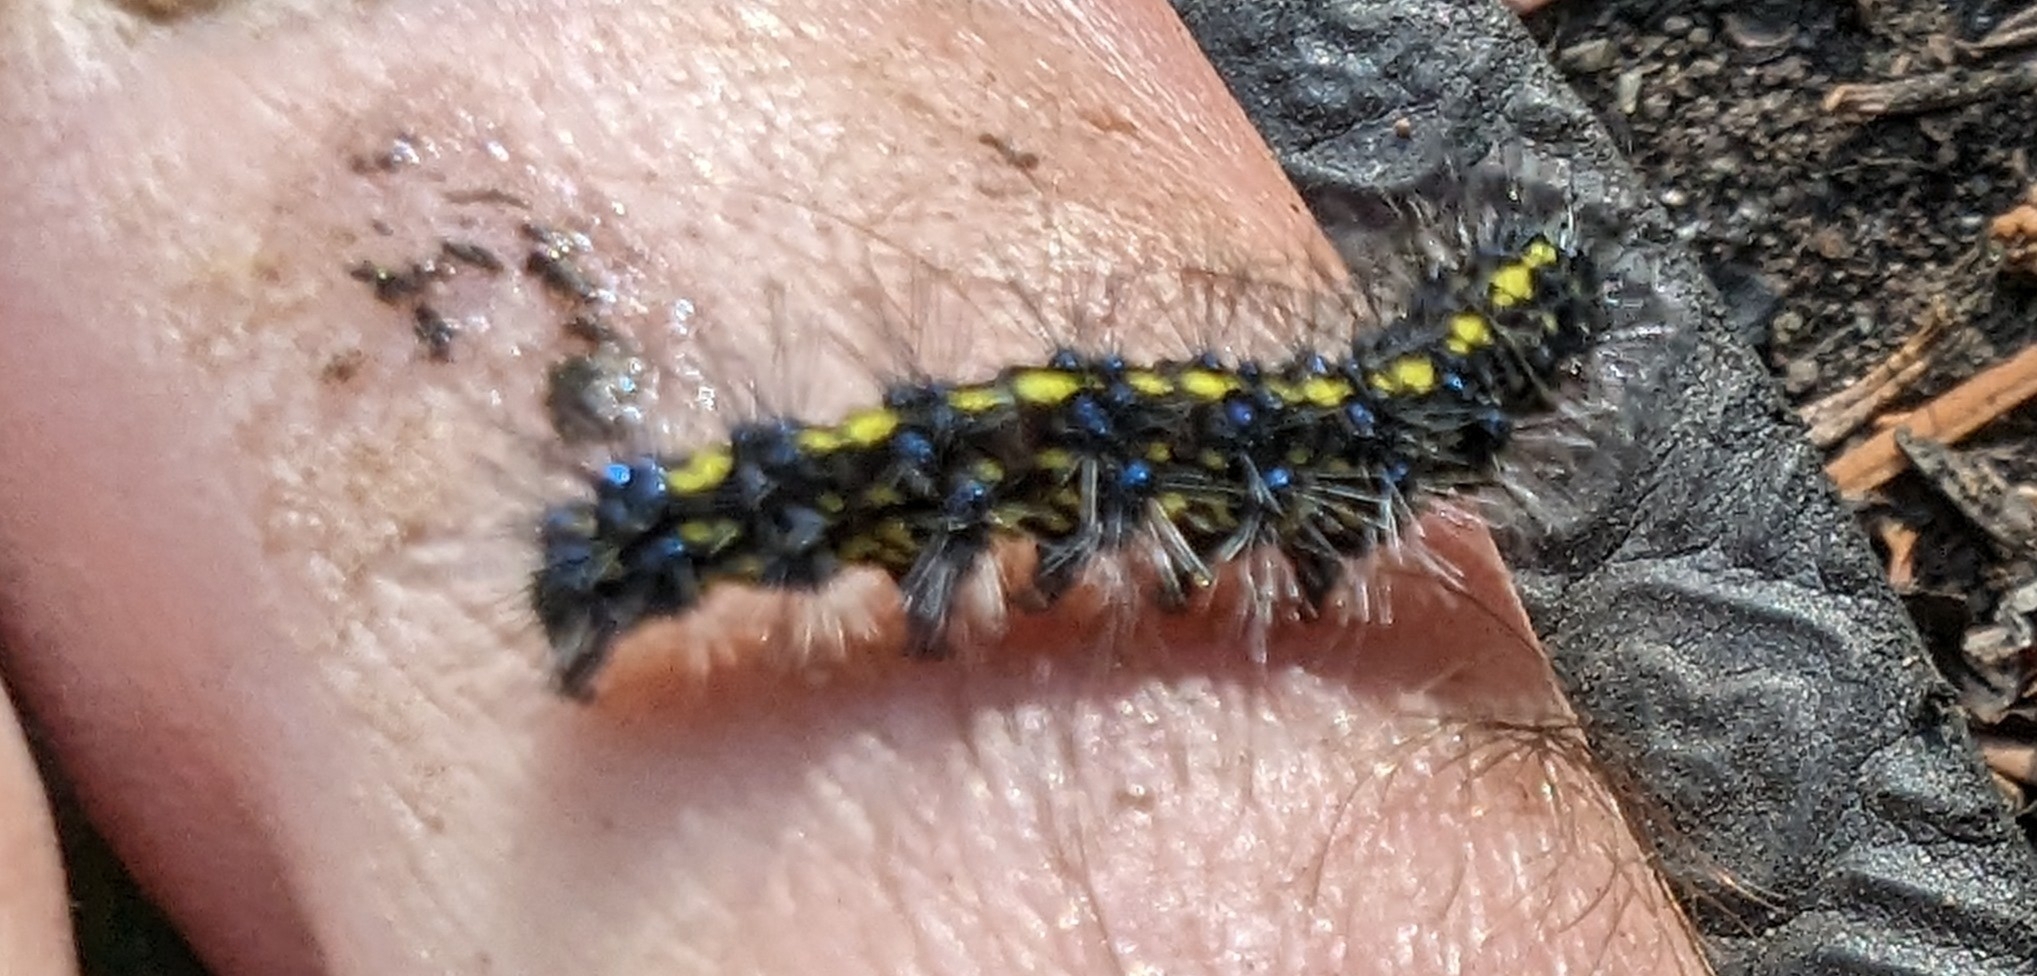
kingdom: Animalia
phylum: Arthropoda
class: Insecta
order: Lepidoptera
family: Erebidae
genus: Gnophaela
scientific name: Gnophaela vermiculata
